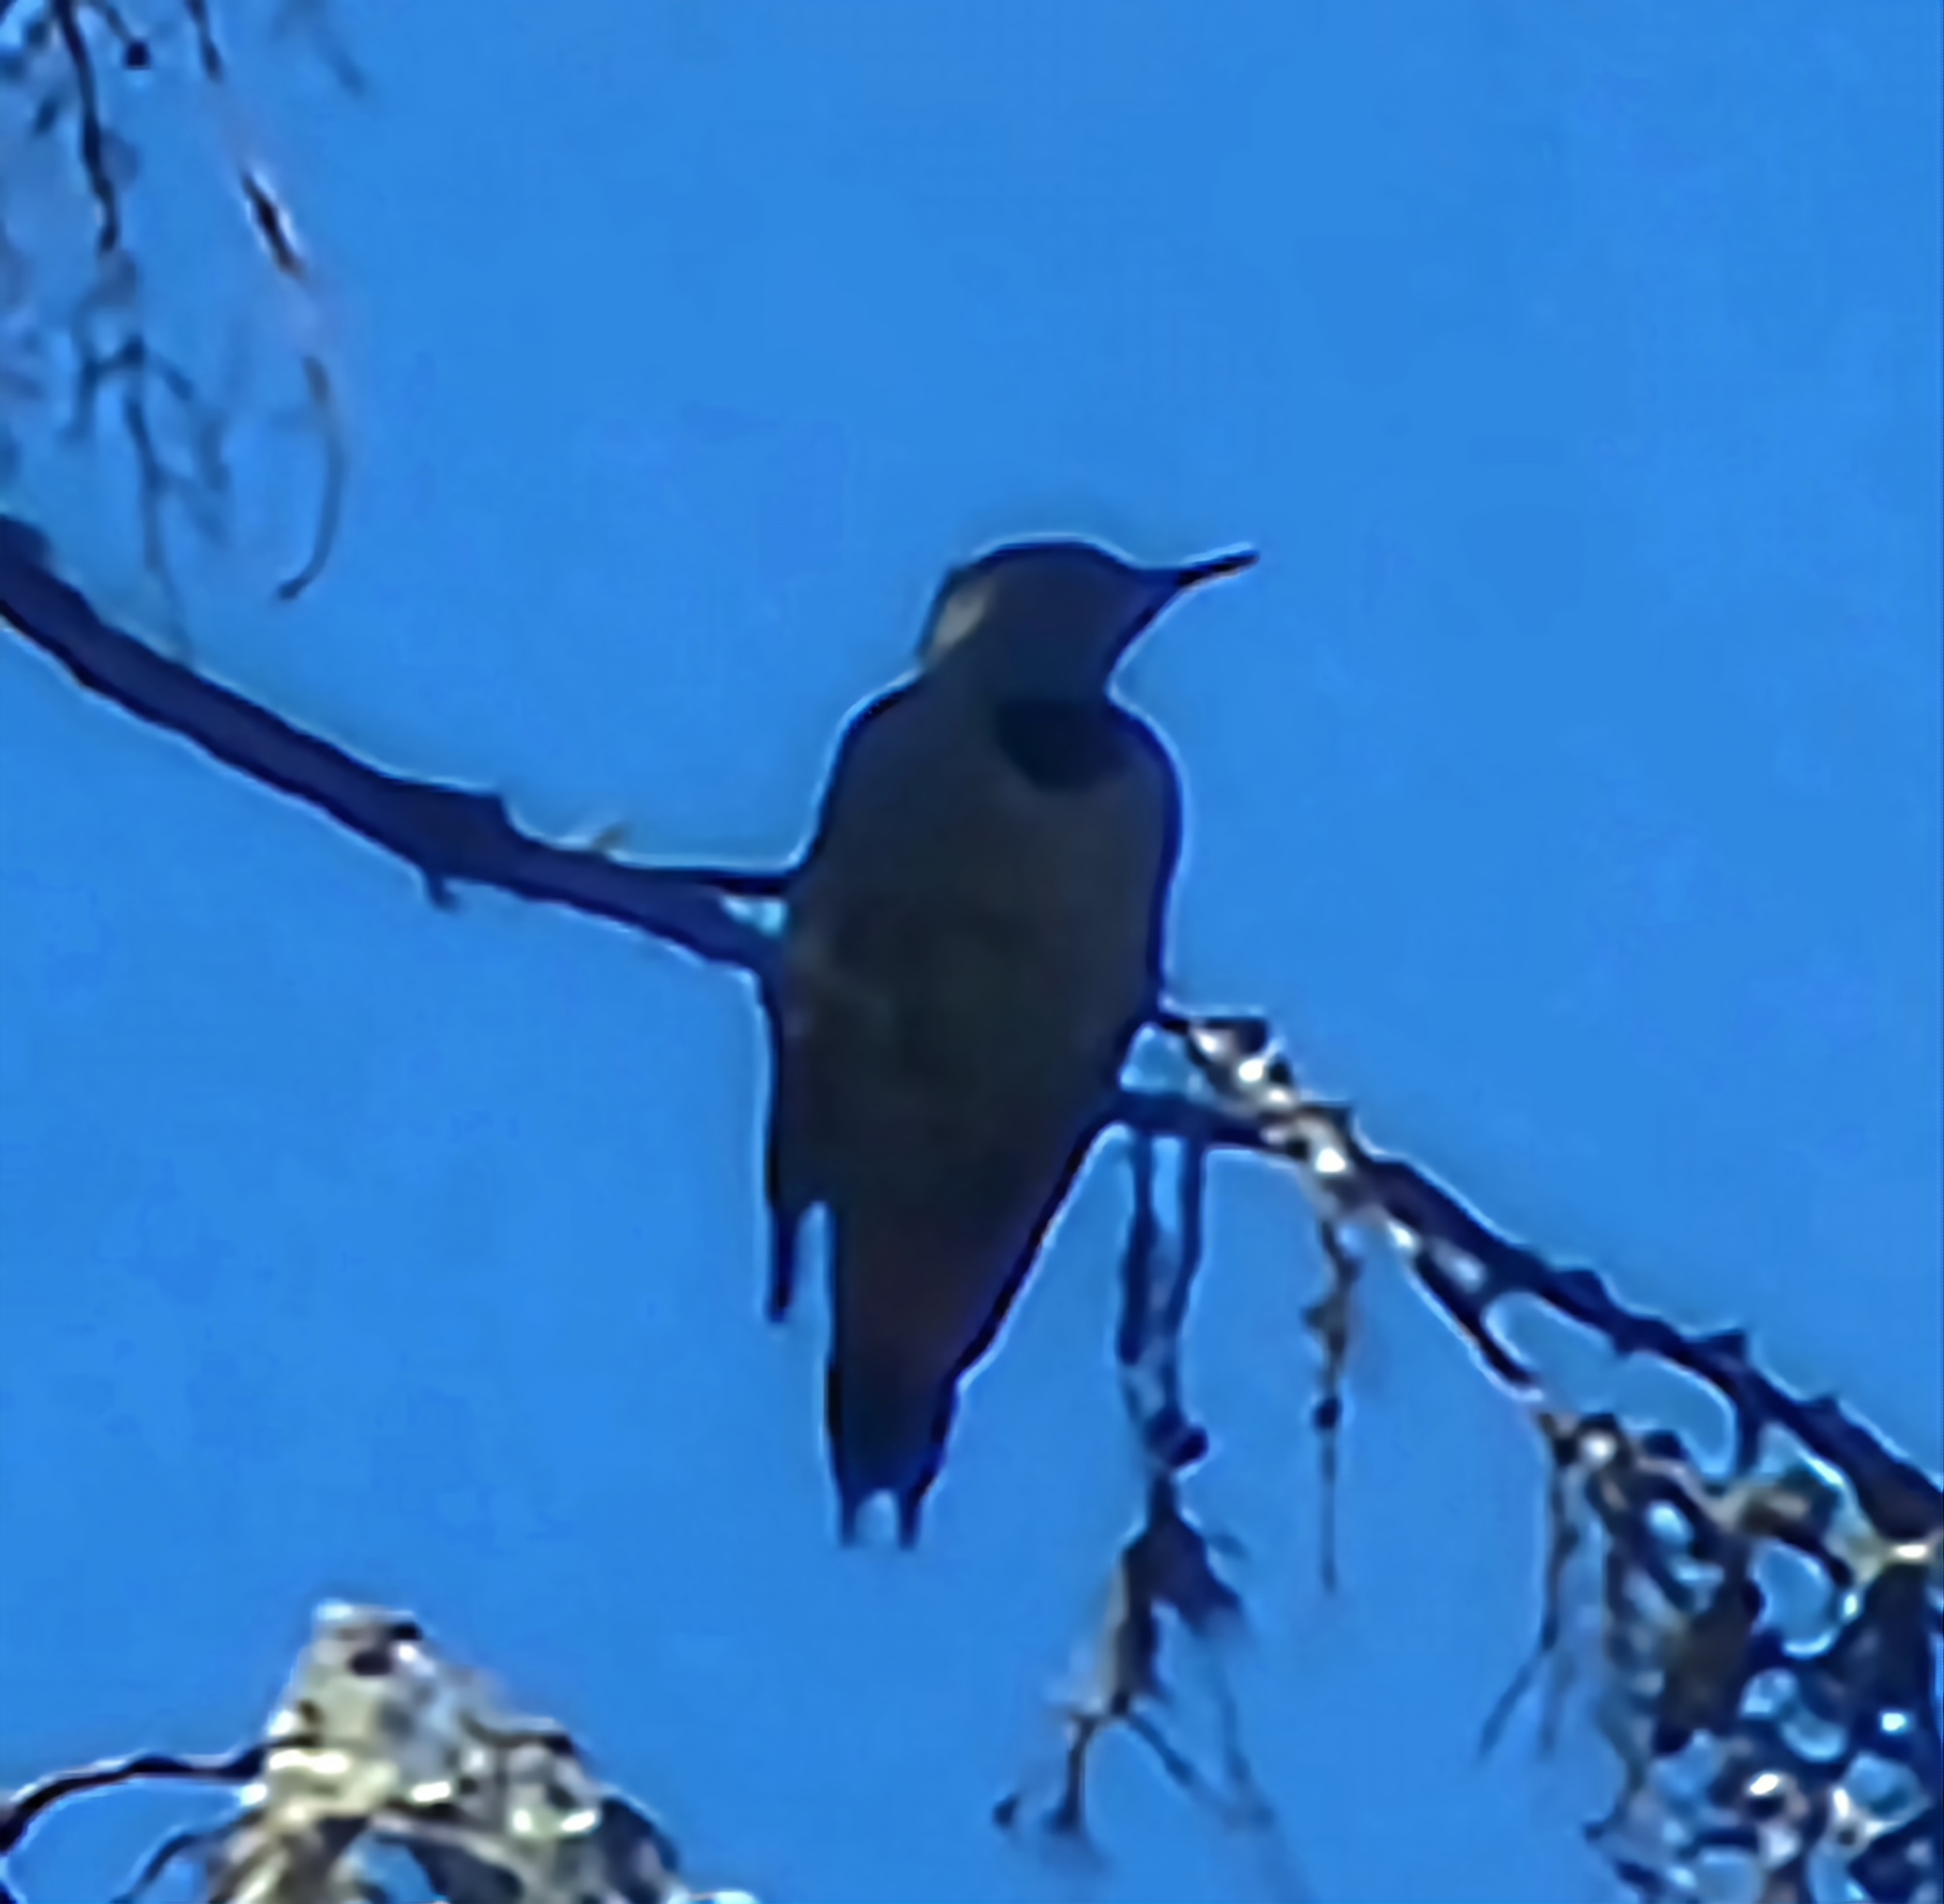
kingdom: Animalia
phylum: Chordata
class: Aves
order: Piciformes
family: Picidae
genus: Colaptes
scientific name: Colaptes auratus
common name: Northern flicker
